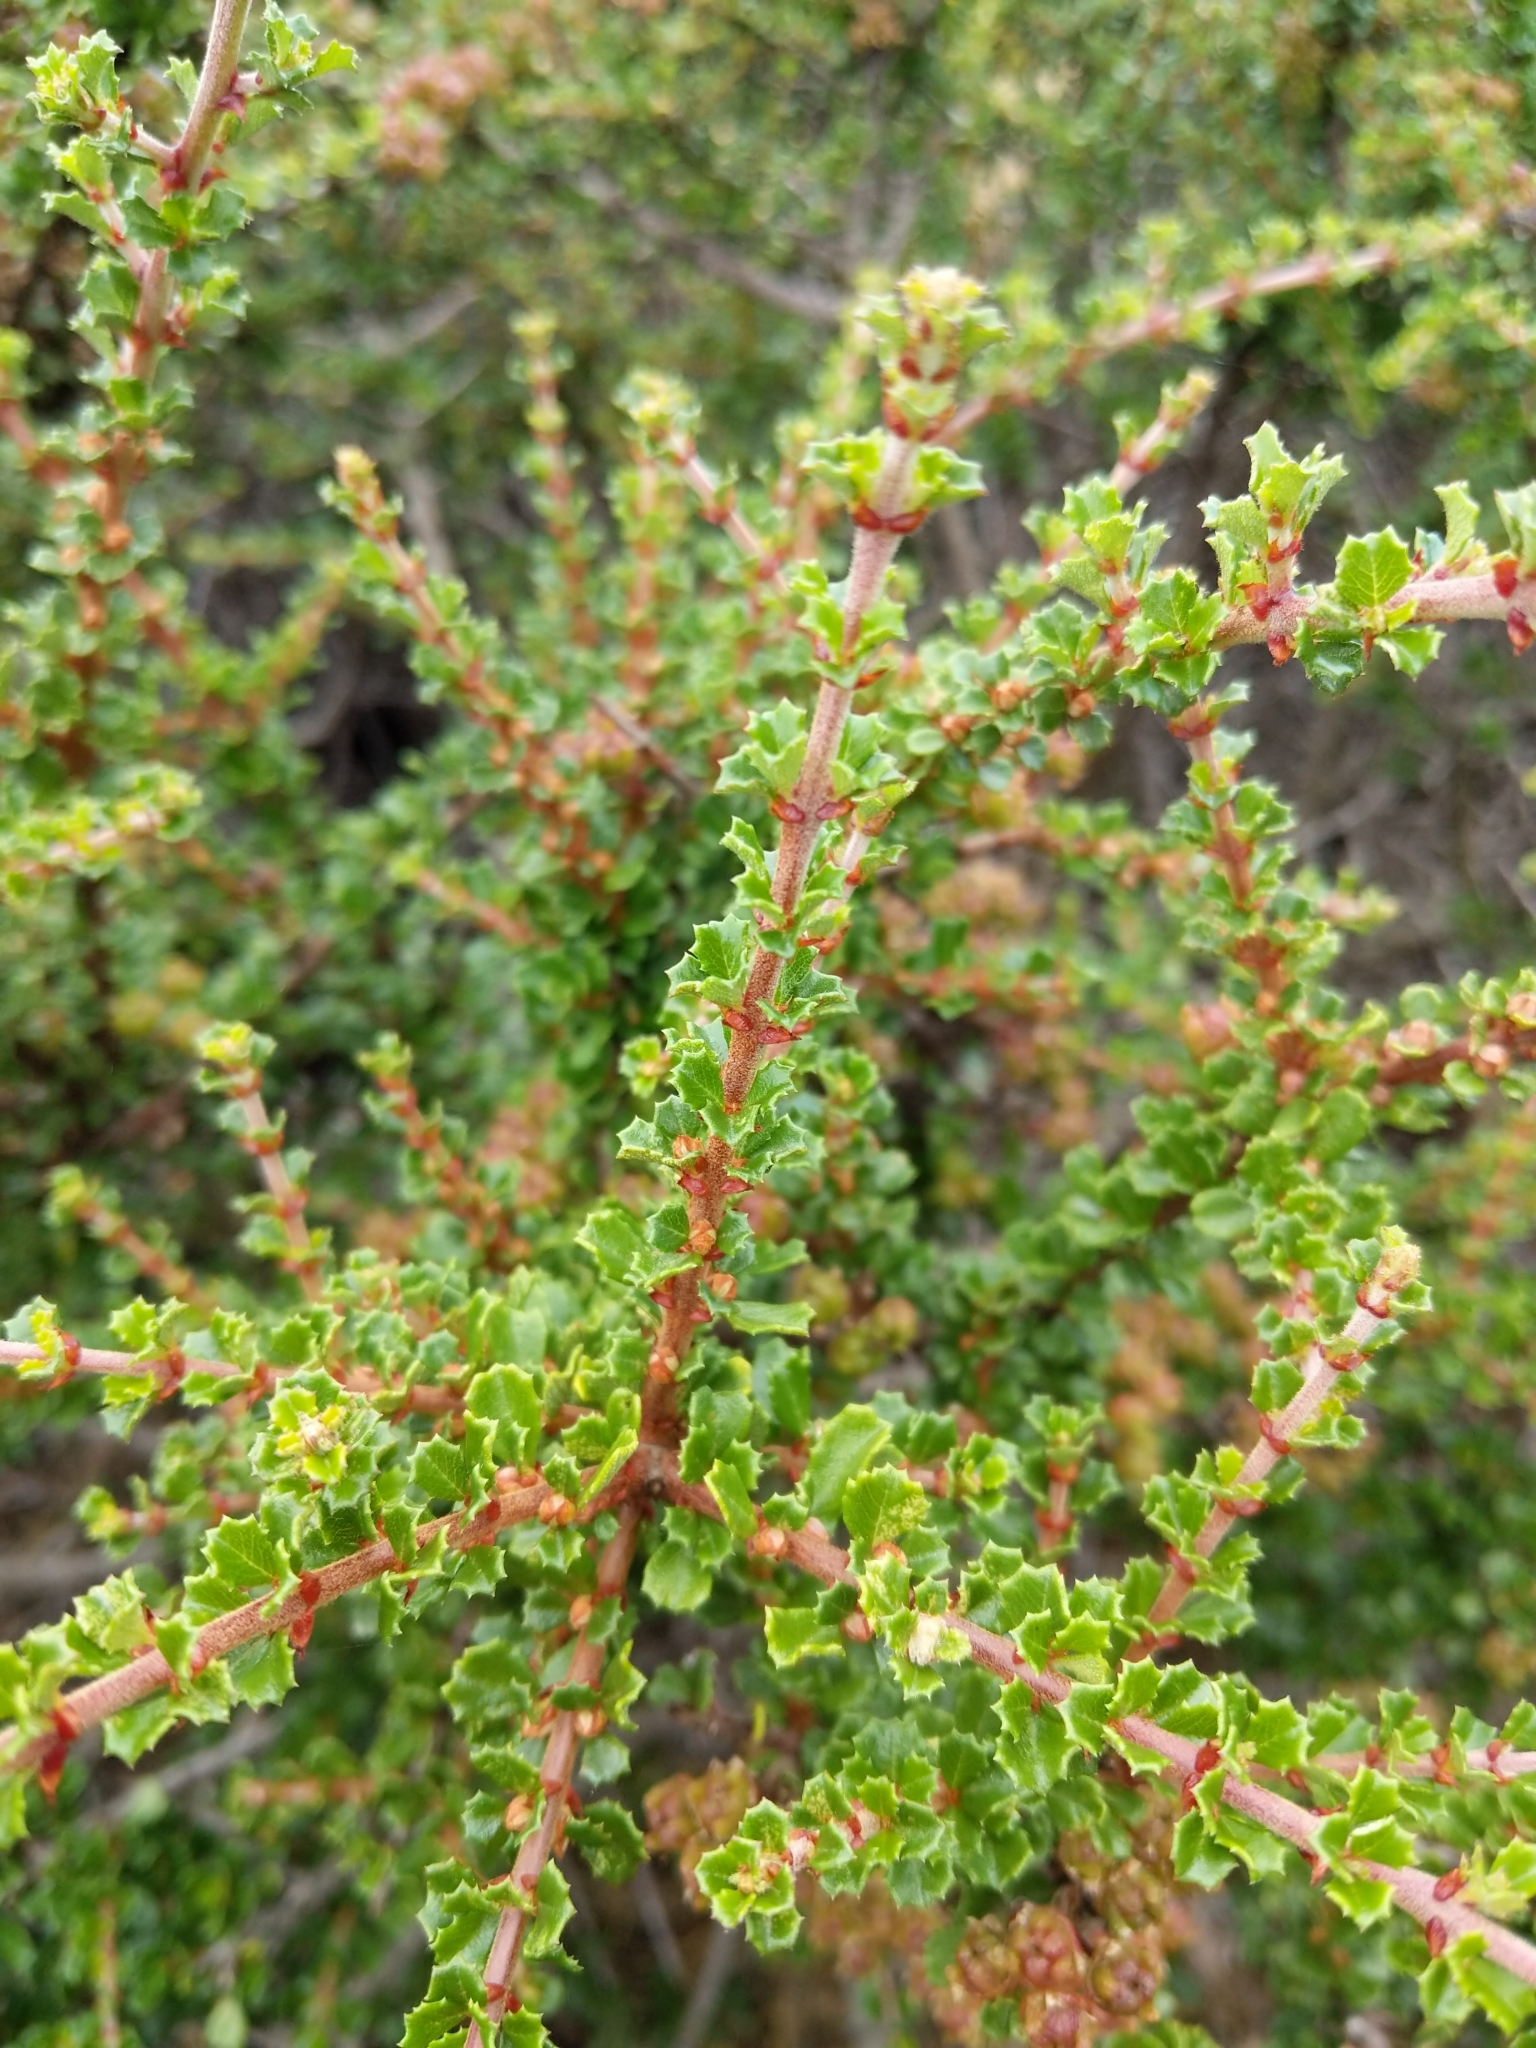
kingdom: Plantae
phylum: Tracheophyta
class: Magnoliopsida
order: Rosales
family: Rhamnaceae
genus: Ceanothus
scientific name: Ceanothus cuneatus
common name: Cuneate ceanothus
